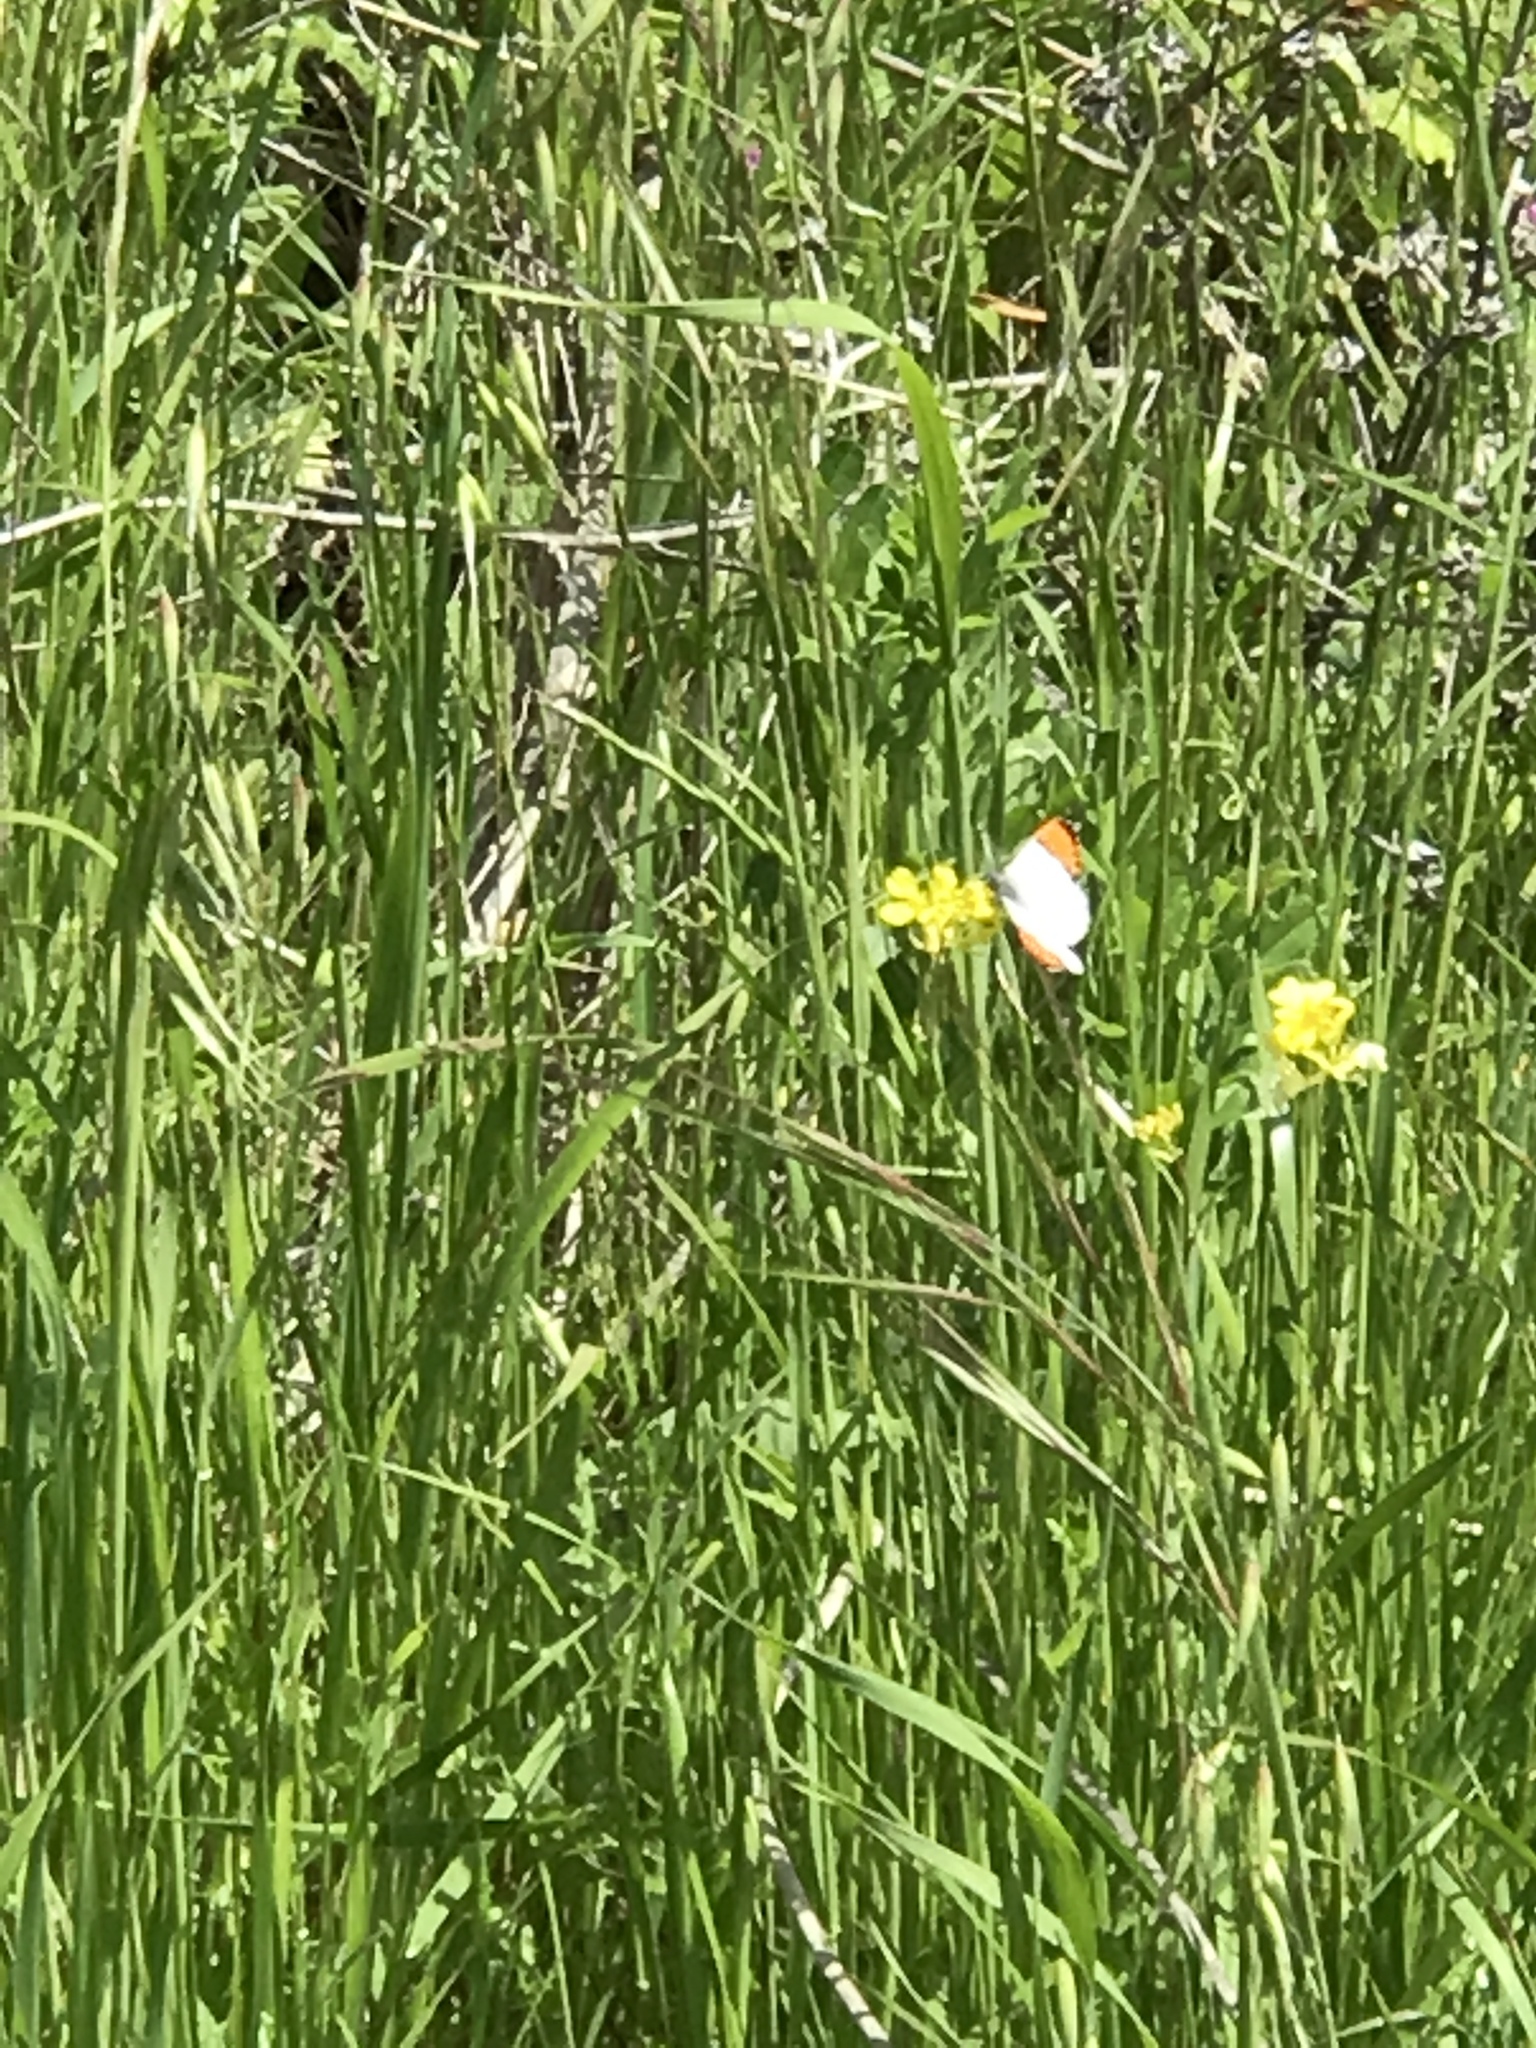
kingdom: Animalia
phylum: Arthropoda
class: Insecta
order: Lepidoptera
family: Pieridae
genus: Anthocharis
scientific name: Anthocharis sara
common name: Sara's orangetip
